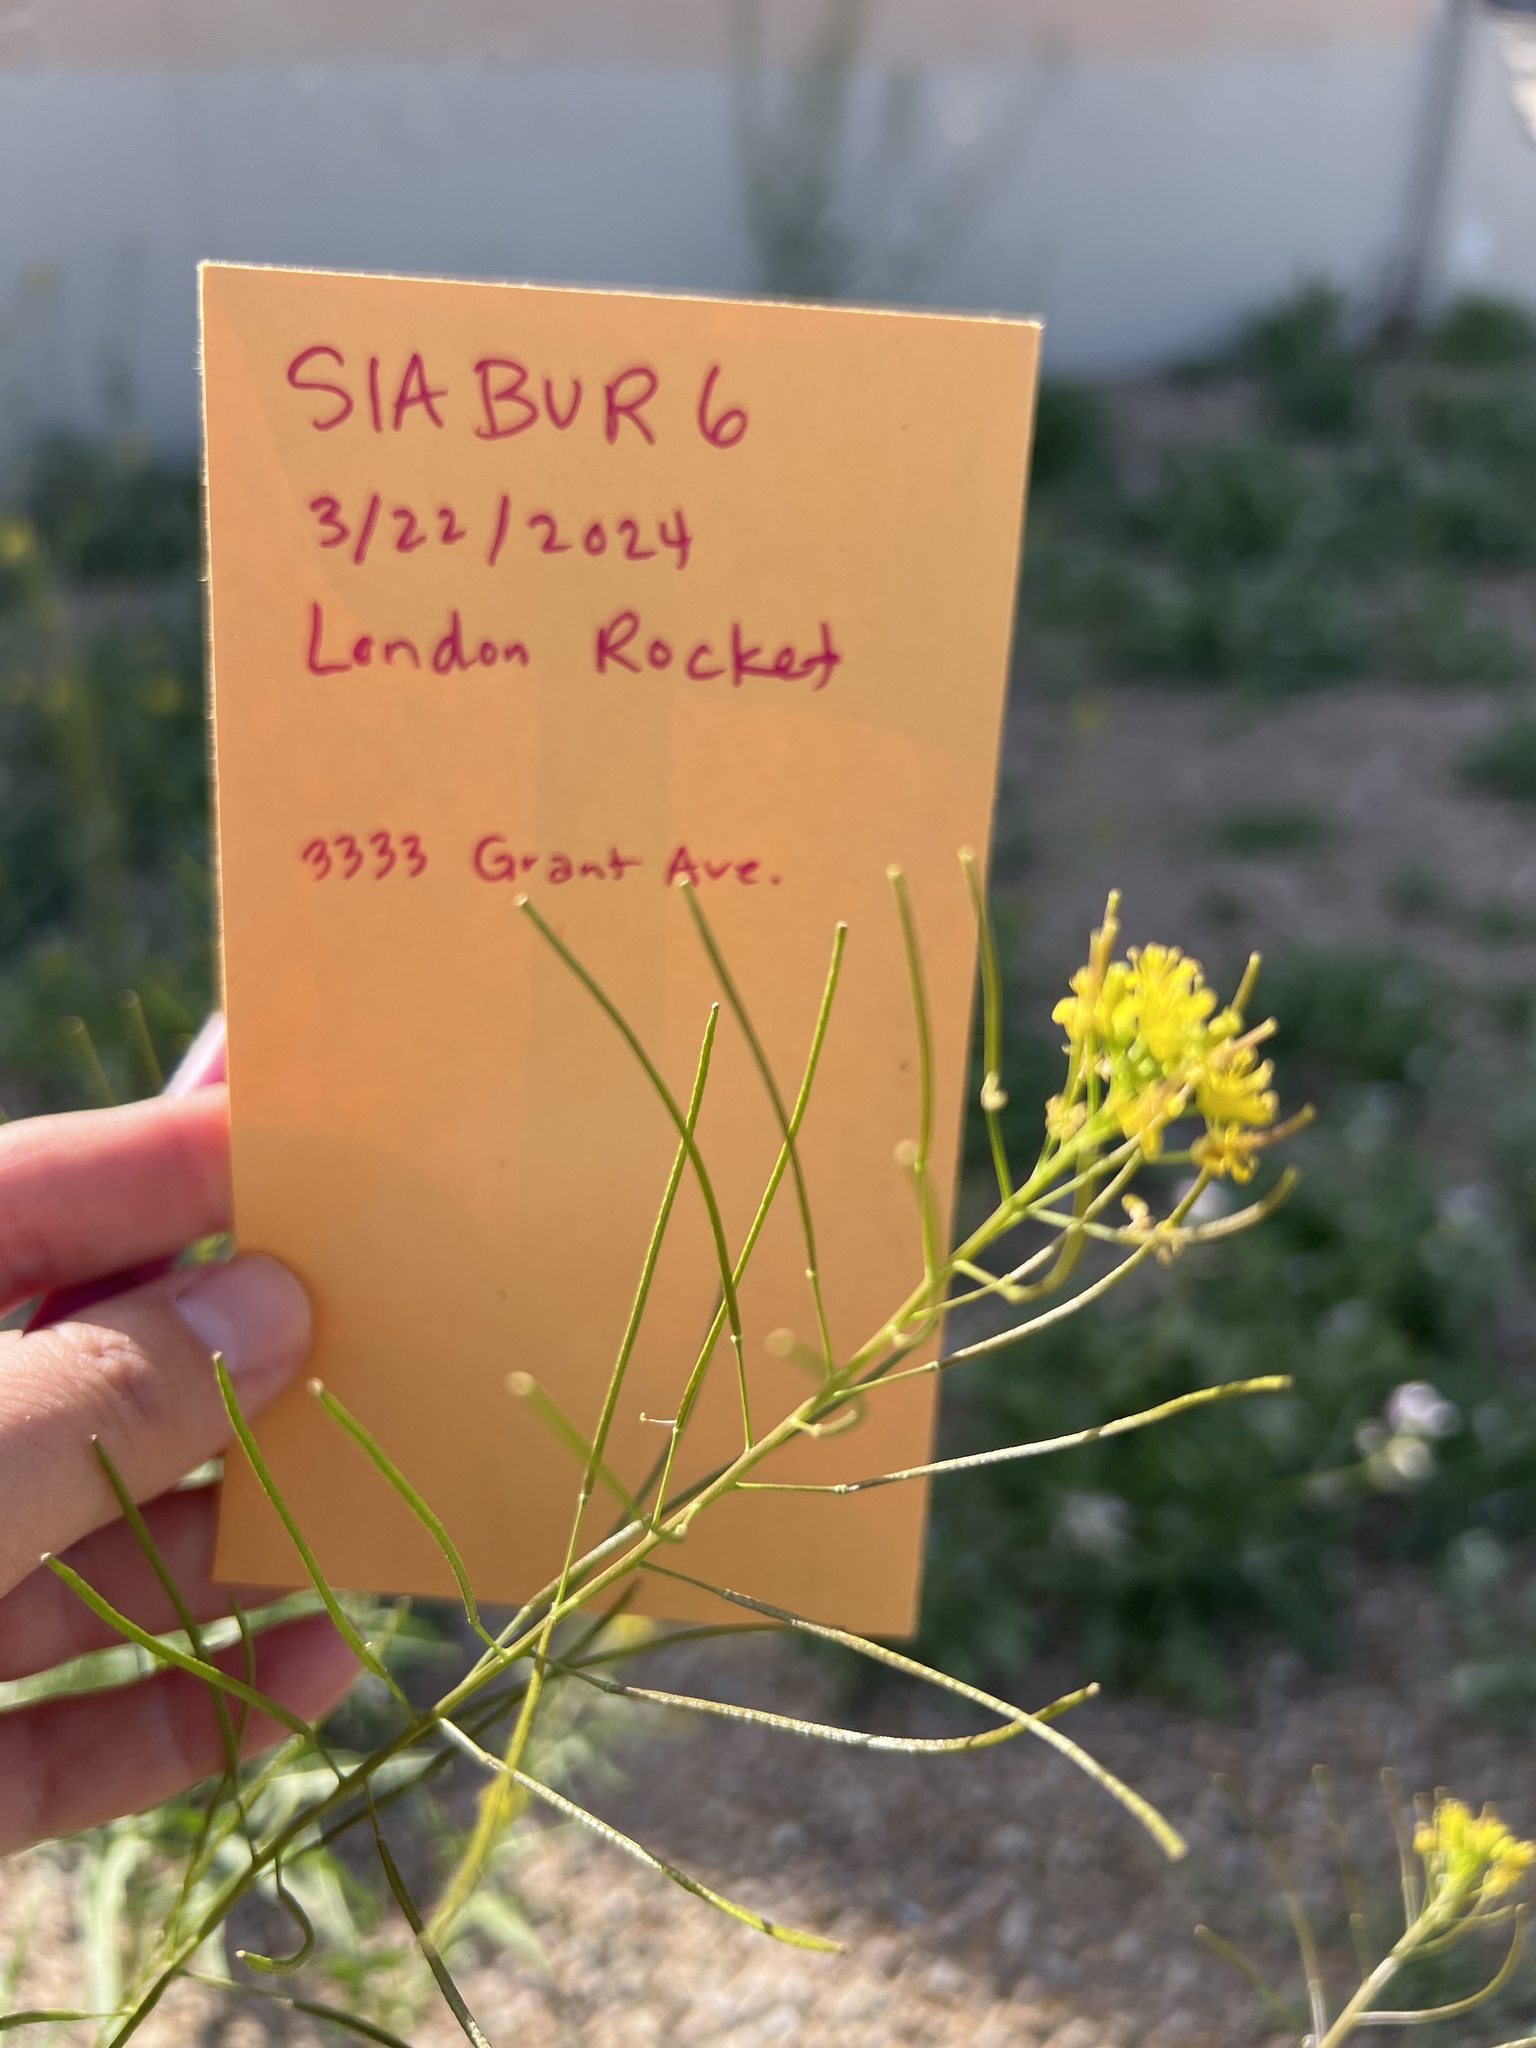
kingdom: Plantae
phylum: Tracheophyta
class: Magnoliopsida
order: Brassicales
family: Brassicaceae
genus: Sisymbrium
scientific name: Sisymbrium irio
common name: London rocket
